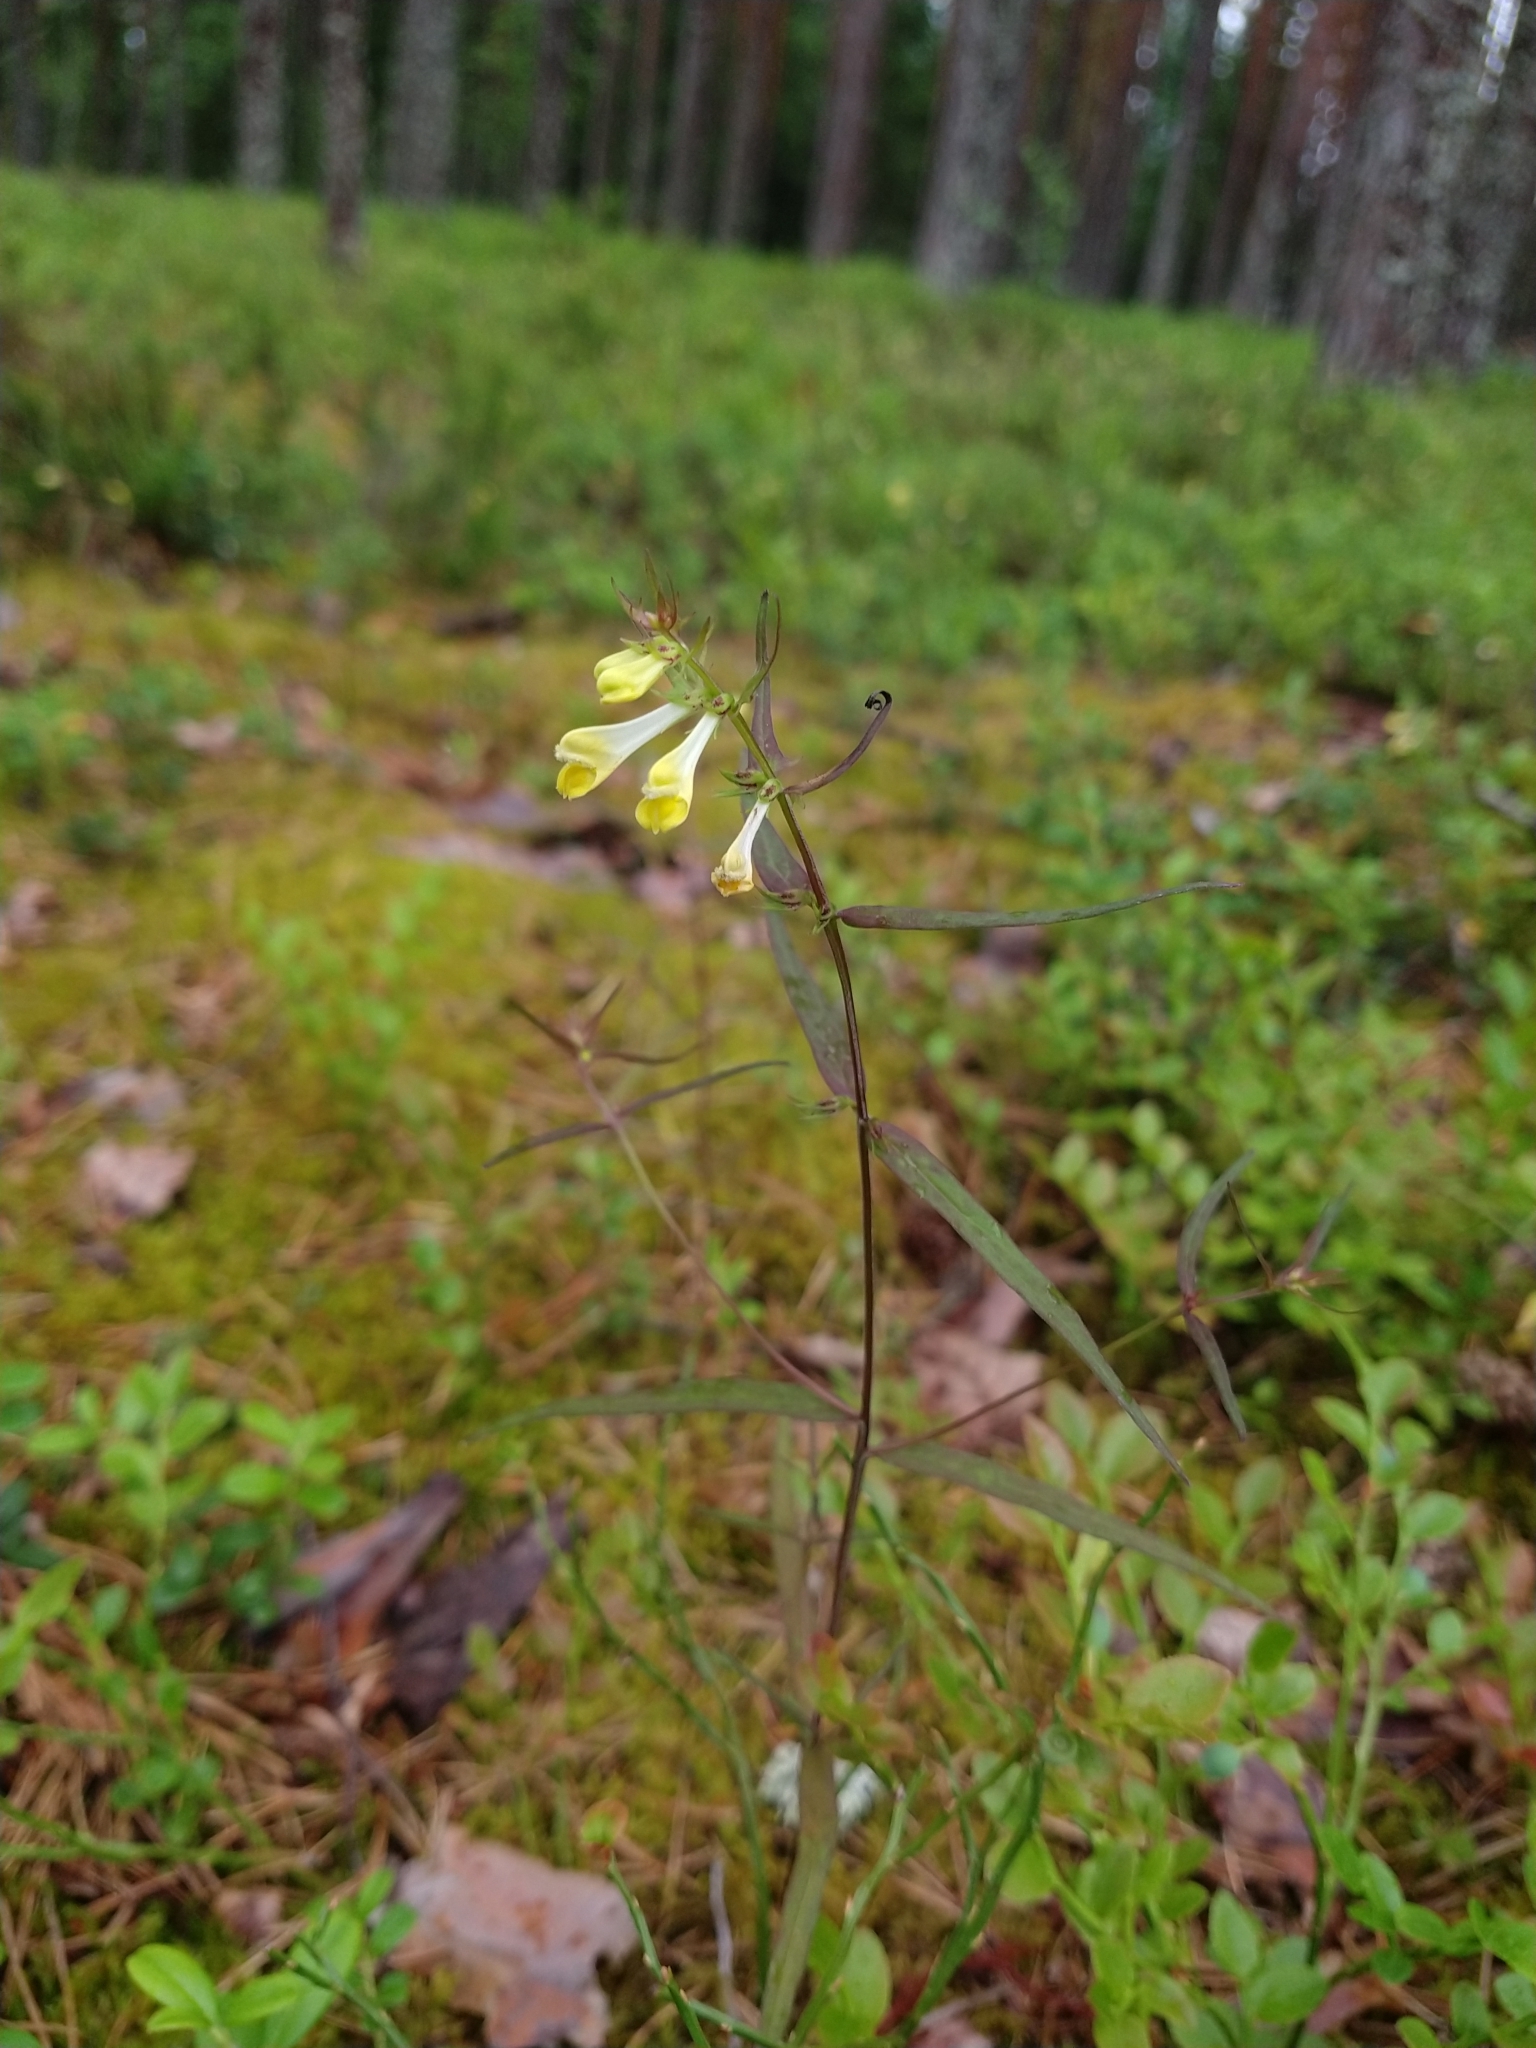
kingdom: Plantae
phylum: Tracheophyta
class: Magnoliopsida
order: Lamiales
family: Orobanchaceae
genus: Melampyrum
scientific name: Melampyrum pratense
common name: Common cow-wheat
